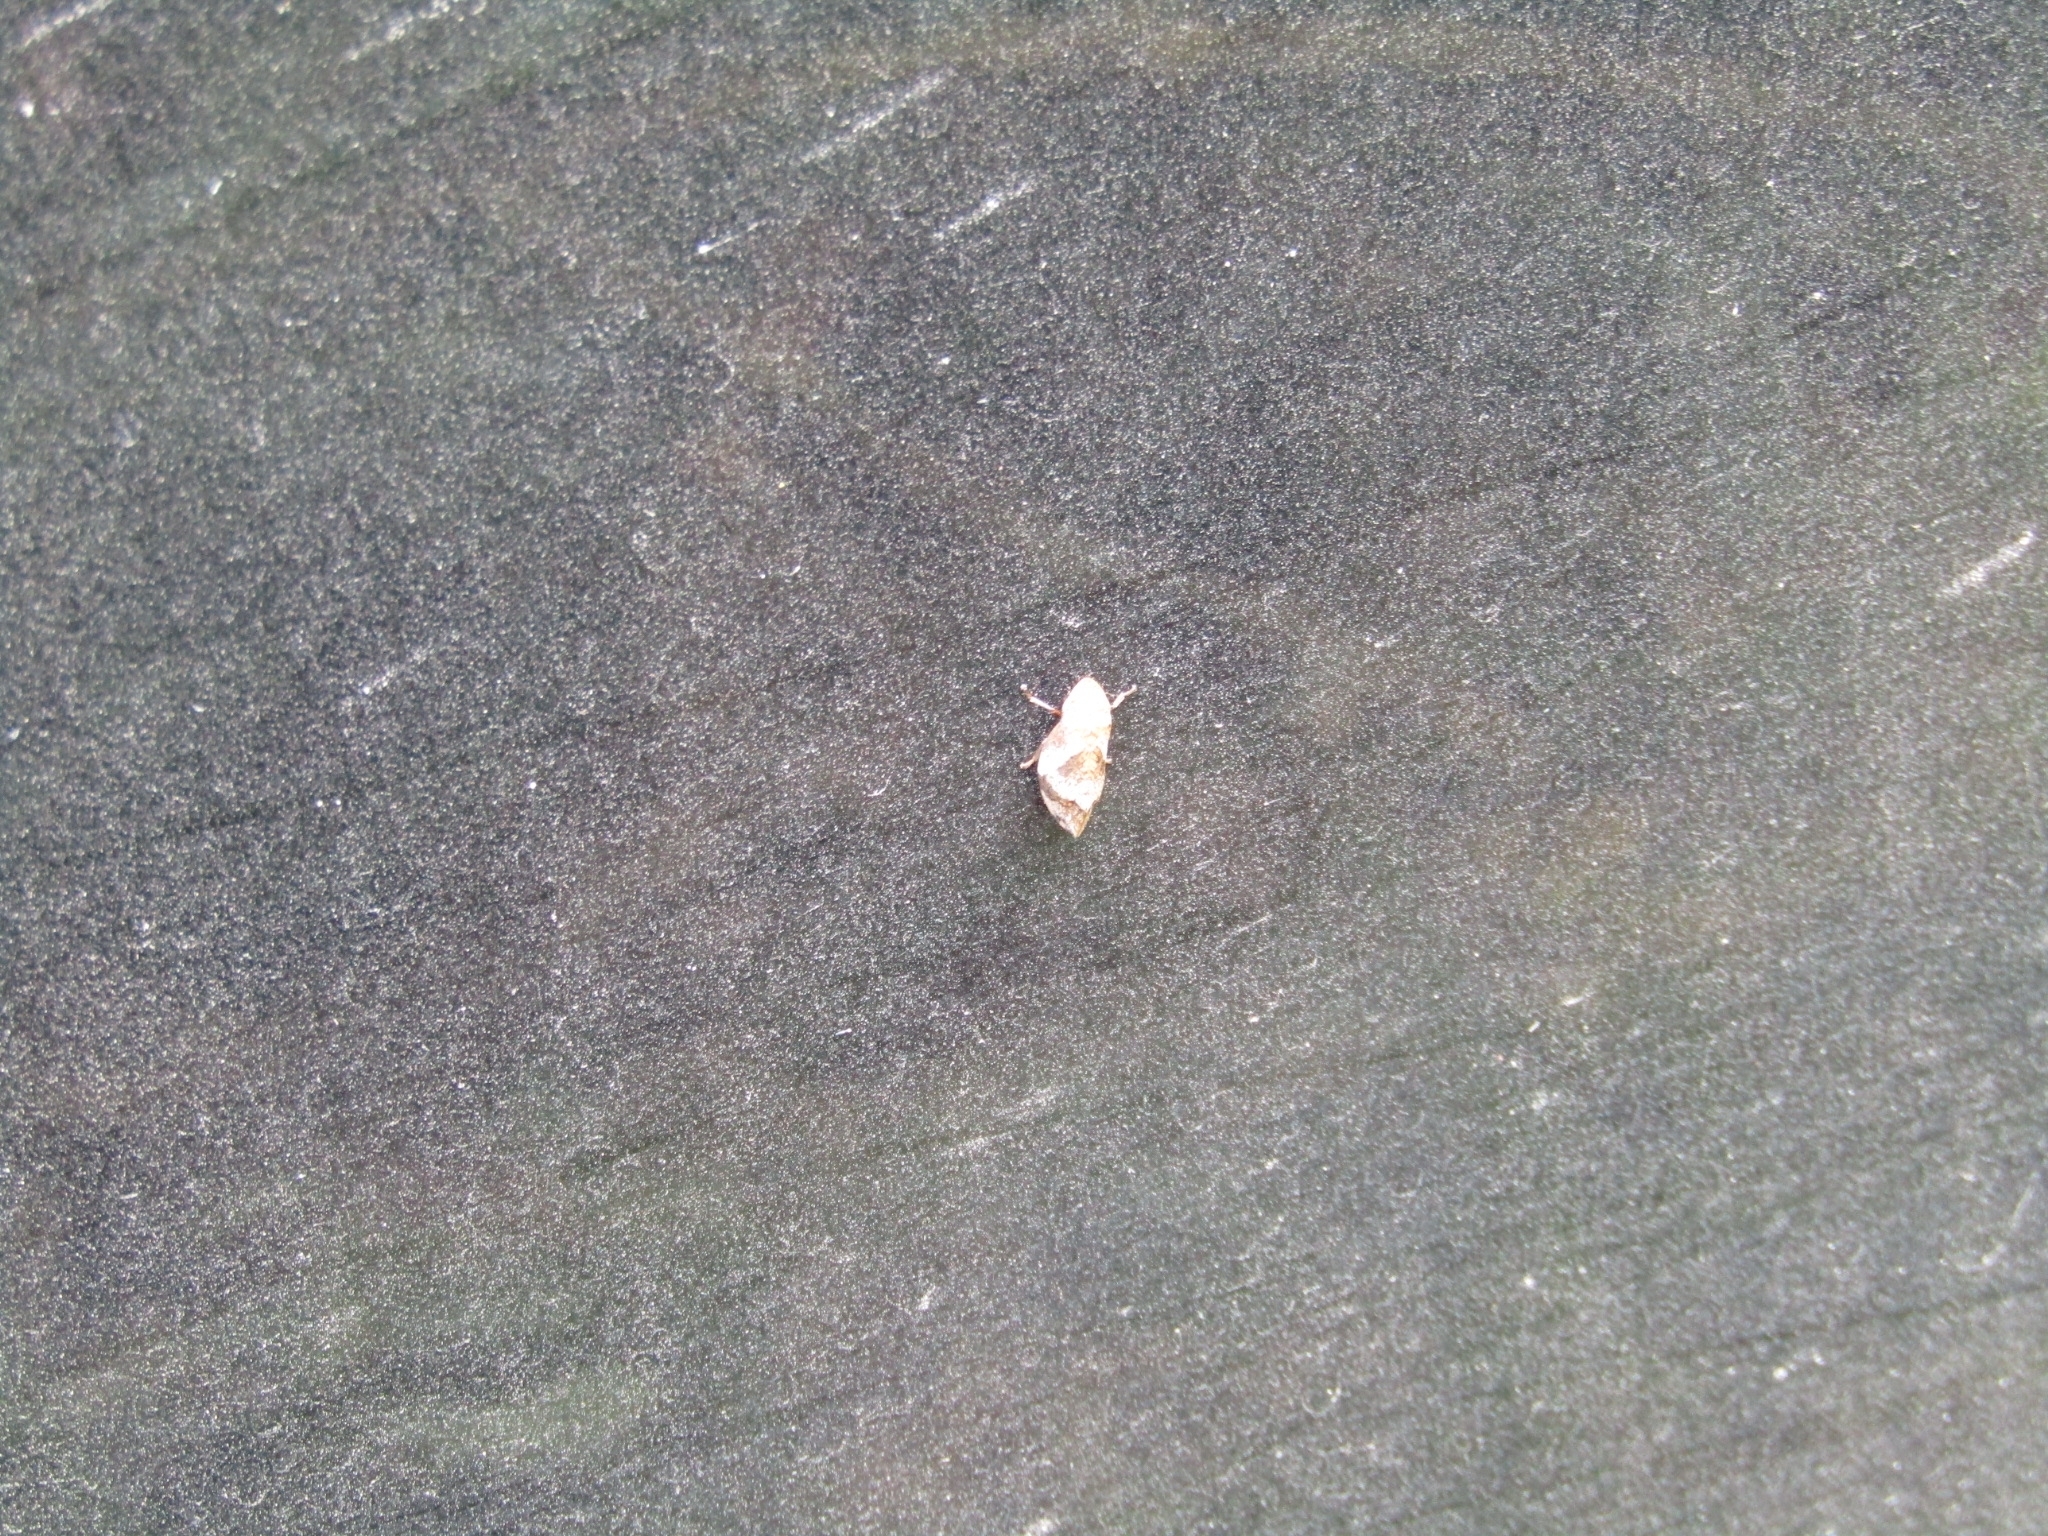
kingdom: Animalia
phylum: Arthropoda
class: Insecta
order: Hemiptera
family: Aphrophoridae
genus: Lepyronia
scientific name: Lepyronia quadrangularis
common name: Diamond-backed spittlebug
